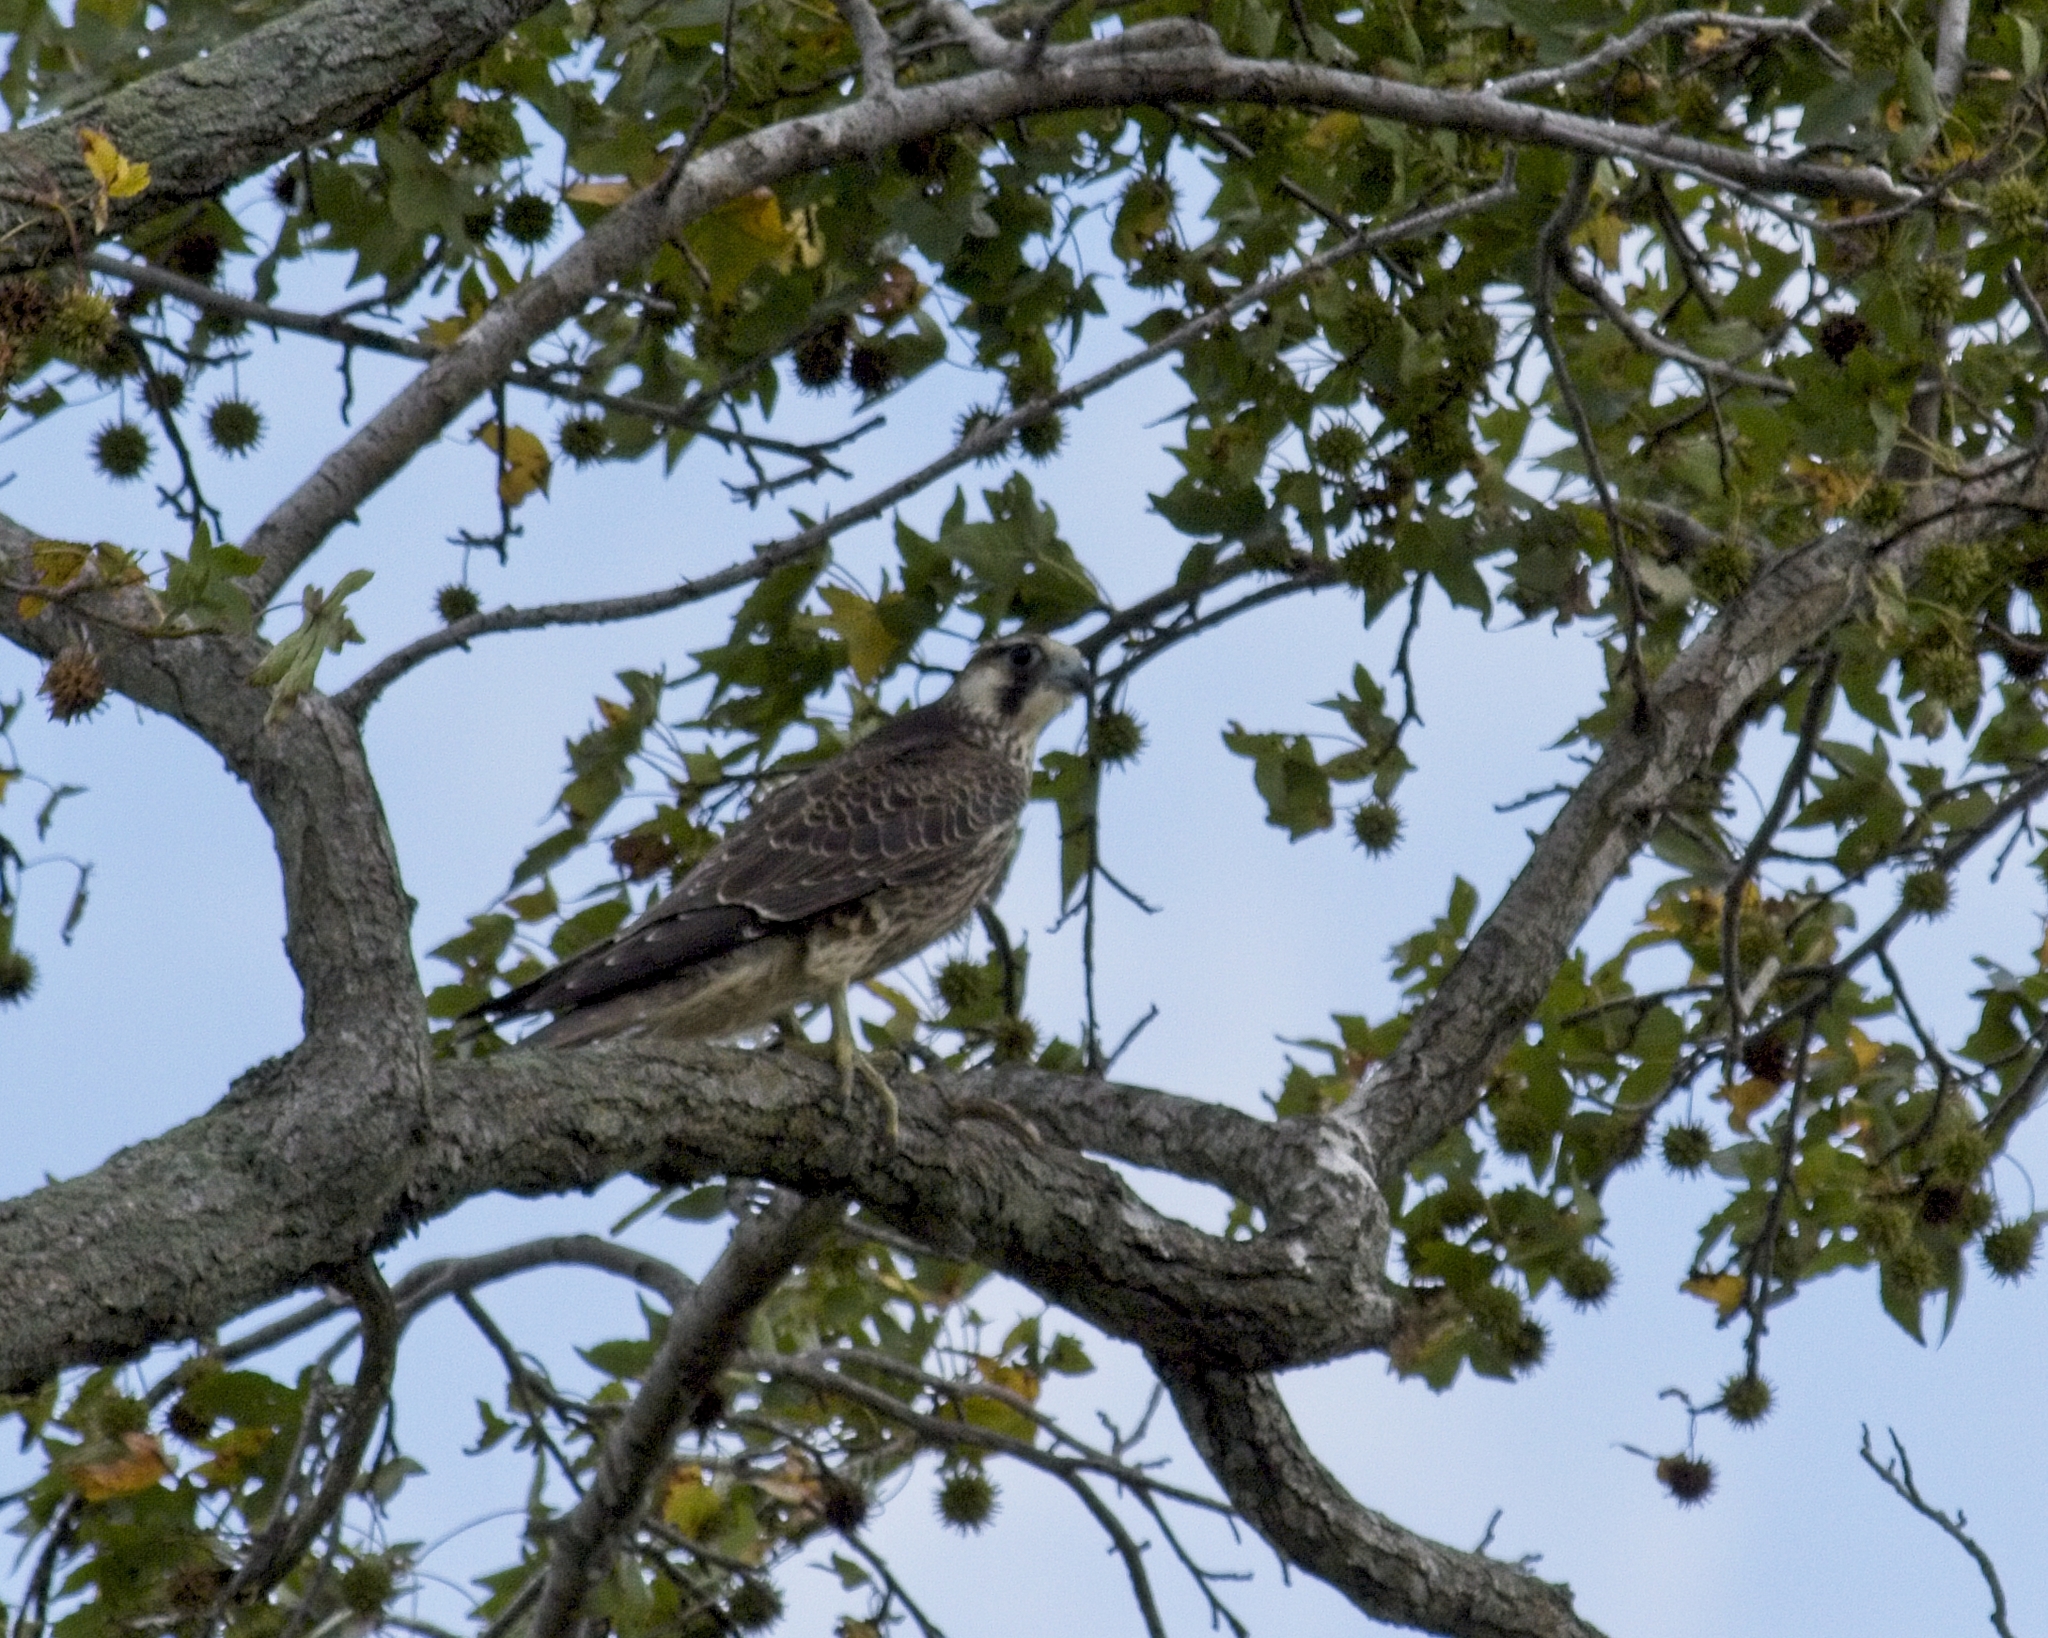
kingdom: Animalia
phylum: Chordata
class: Aves
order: Falconiformes
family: Falconidae
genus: Falco
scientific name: Falco peregrinus
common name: Peregrine falcon
